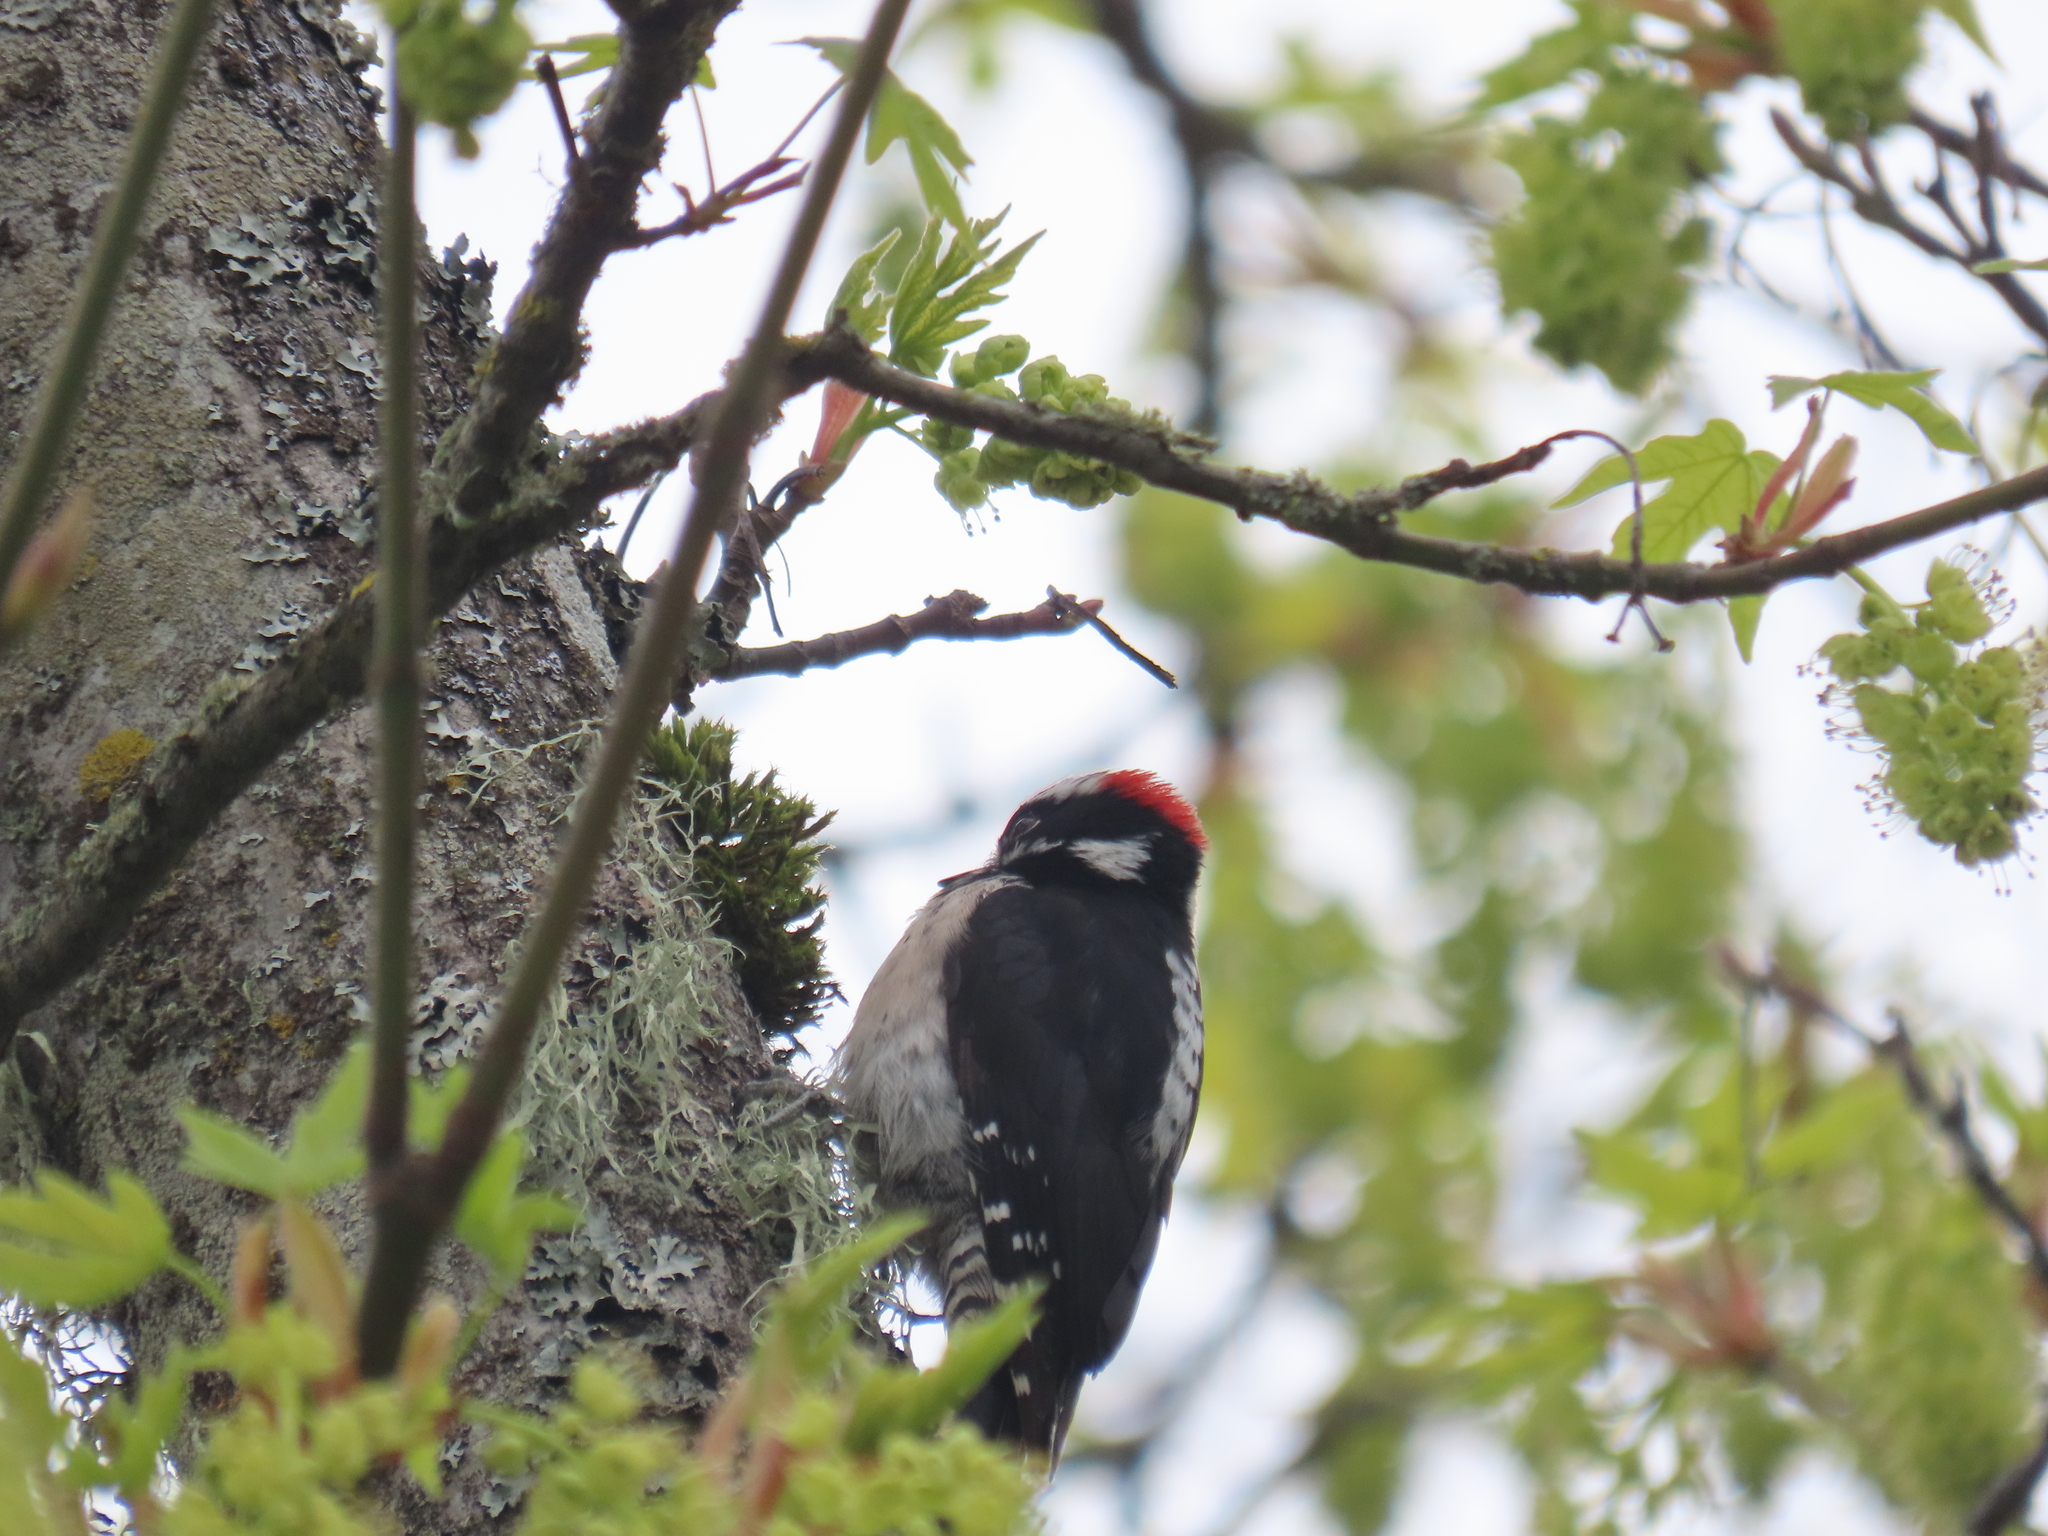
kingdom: Animalia
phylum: Chordata
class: Aves
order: Piciformes
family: Picidae
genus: Dryobates
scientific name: Dryobates pubescens
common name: Downy woodpecker
